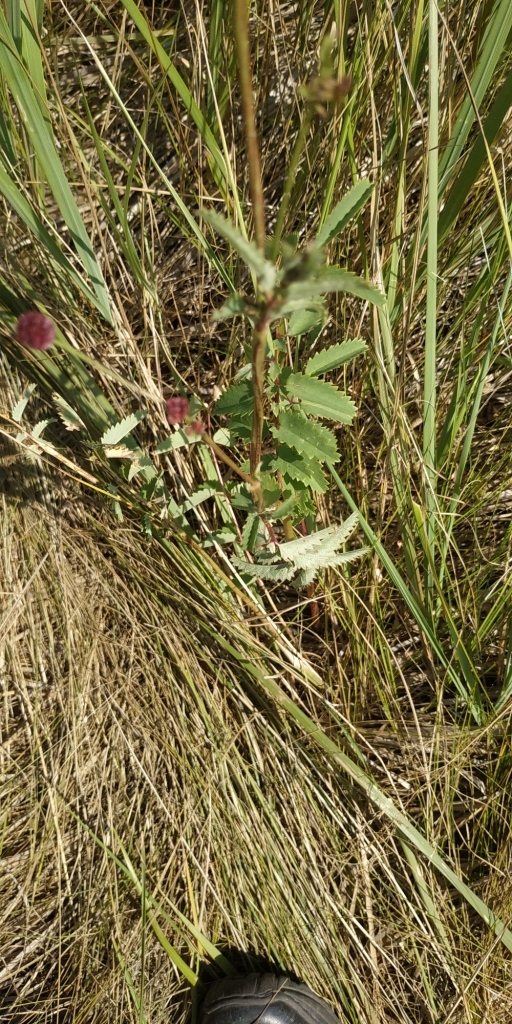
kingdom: Plantae
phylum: Tracheophyta
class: Magnoliopsida
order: Rosales
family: Rosaceae
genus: Sanguisorba
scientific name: Sanguisorba officinalis
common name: Great burnet
